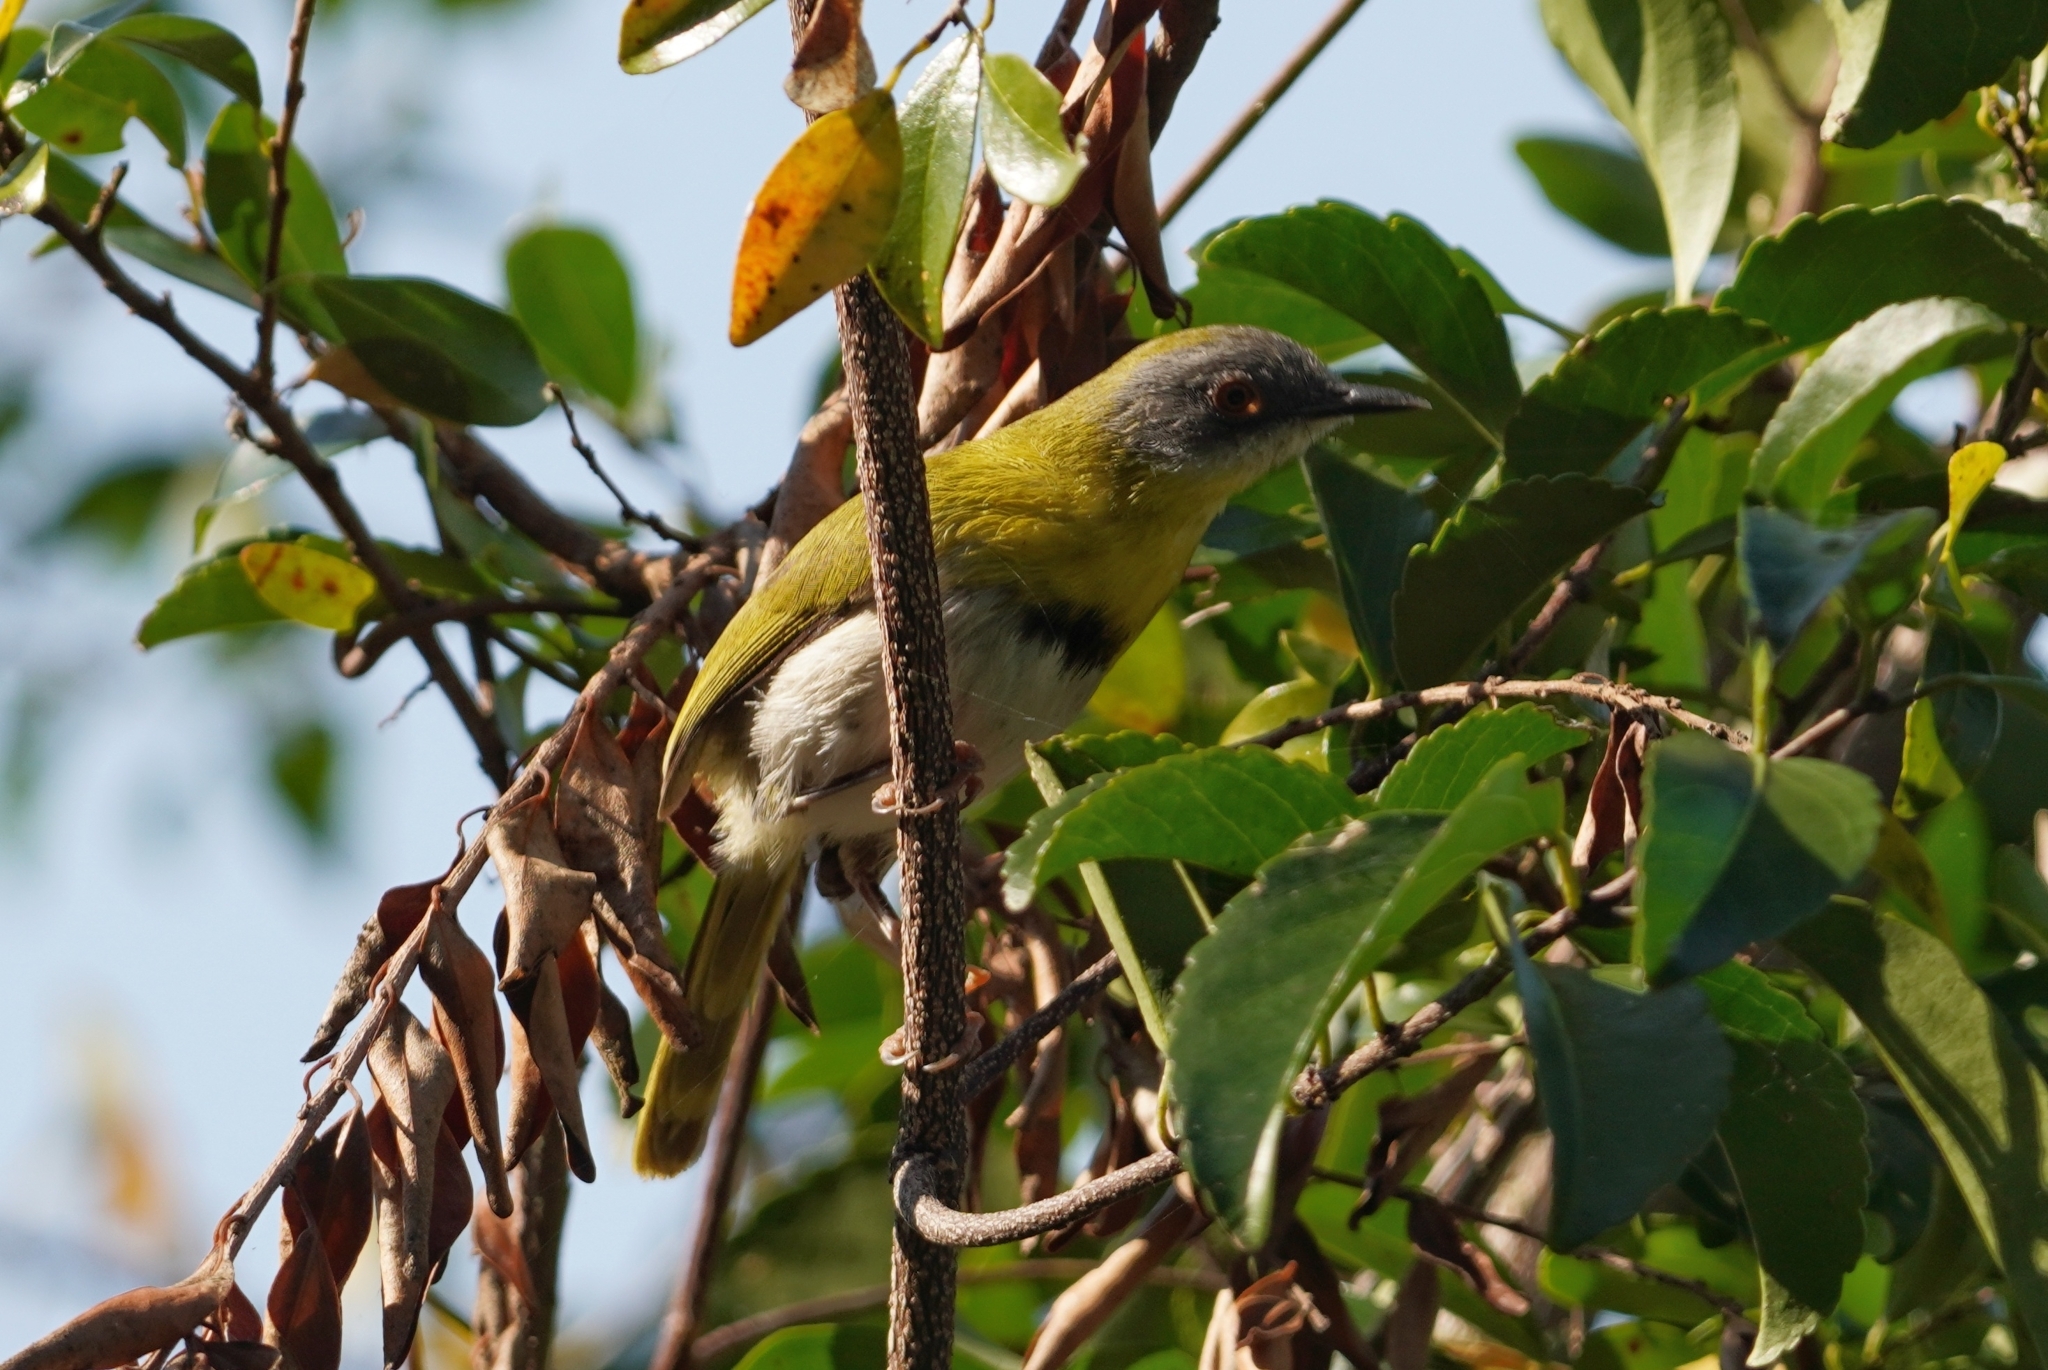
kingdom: Animalia
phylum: Chordata
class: Aves
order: Passeriformes
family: Cisticolidae
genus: Apalis
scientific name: Apalis flavida
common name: Yellow-breasted apalis
